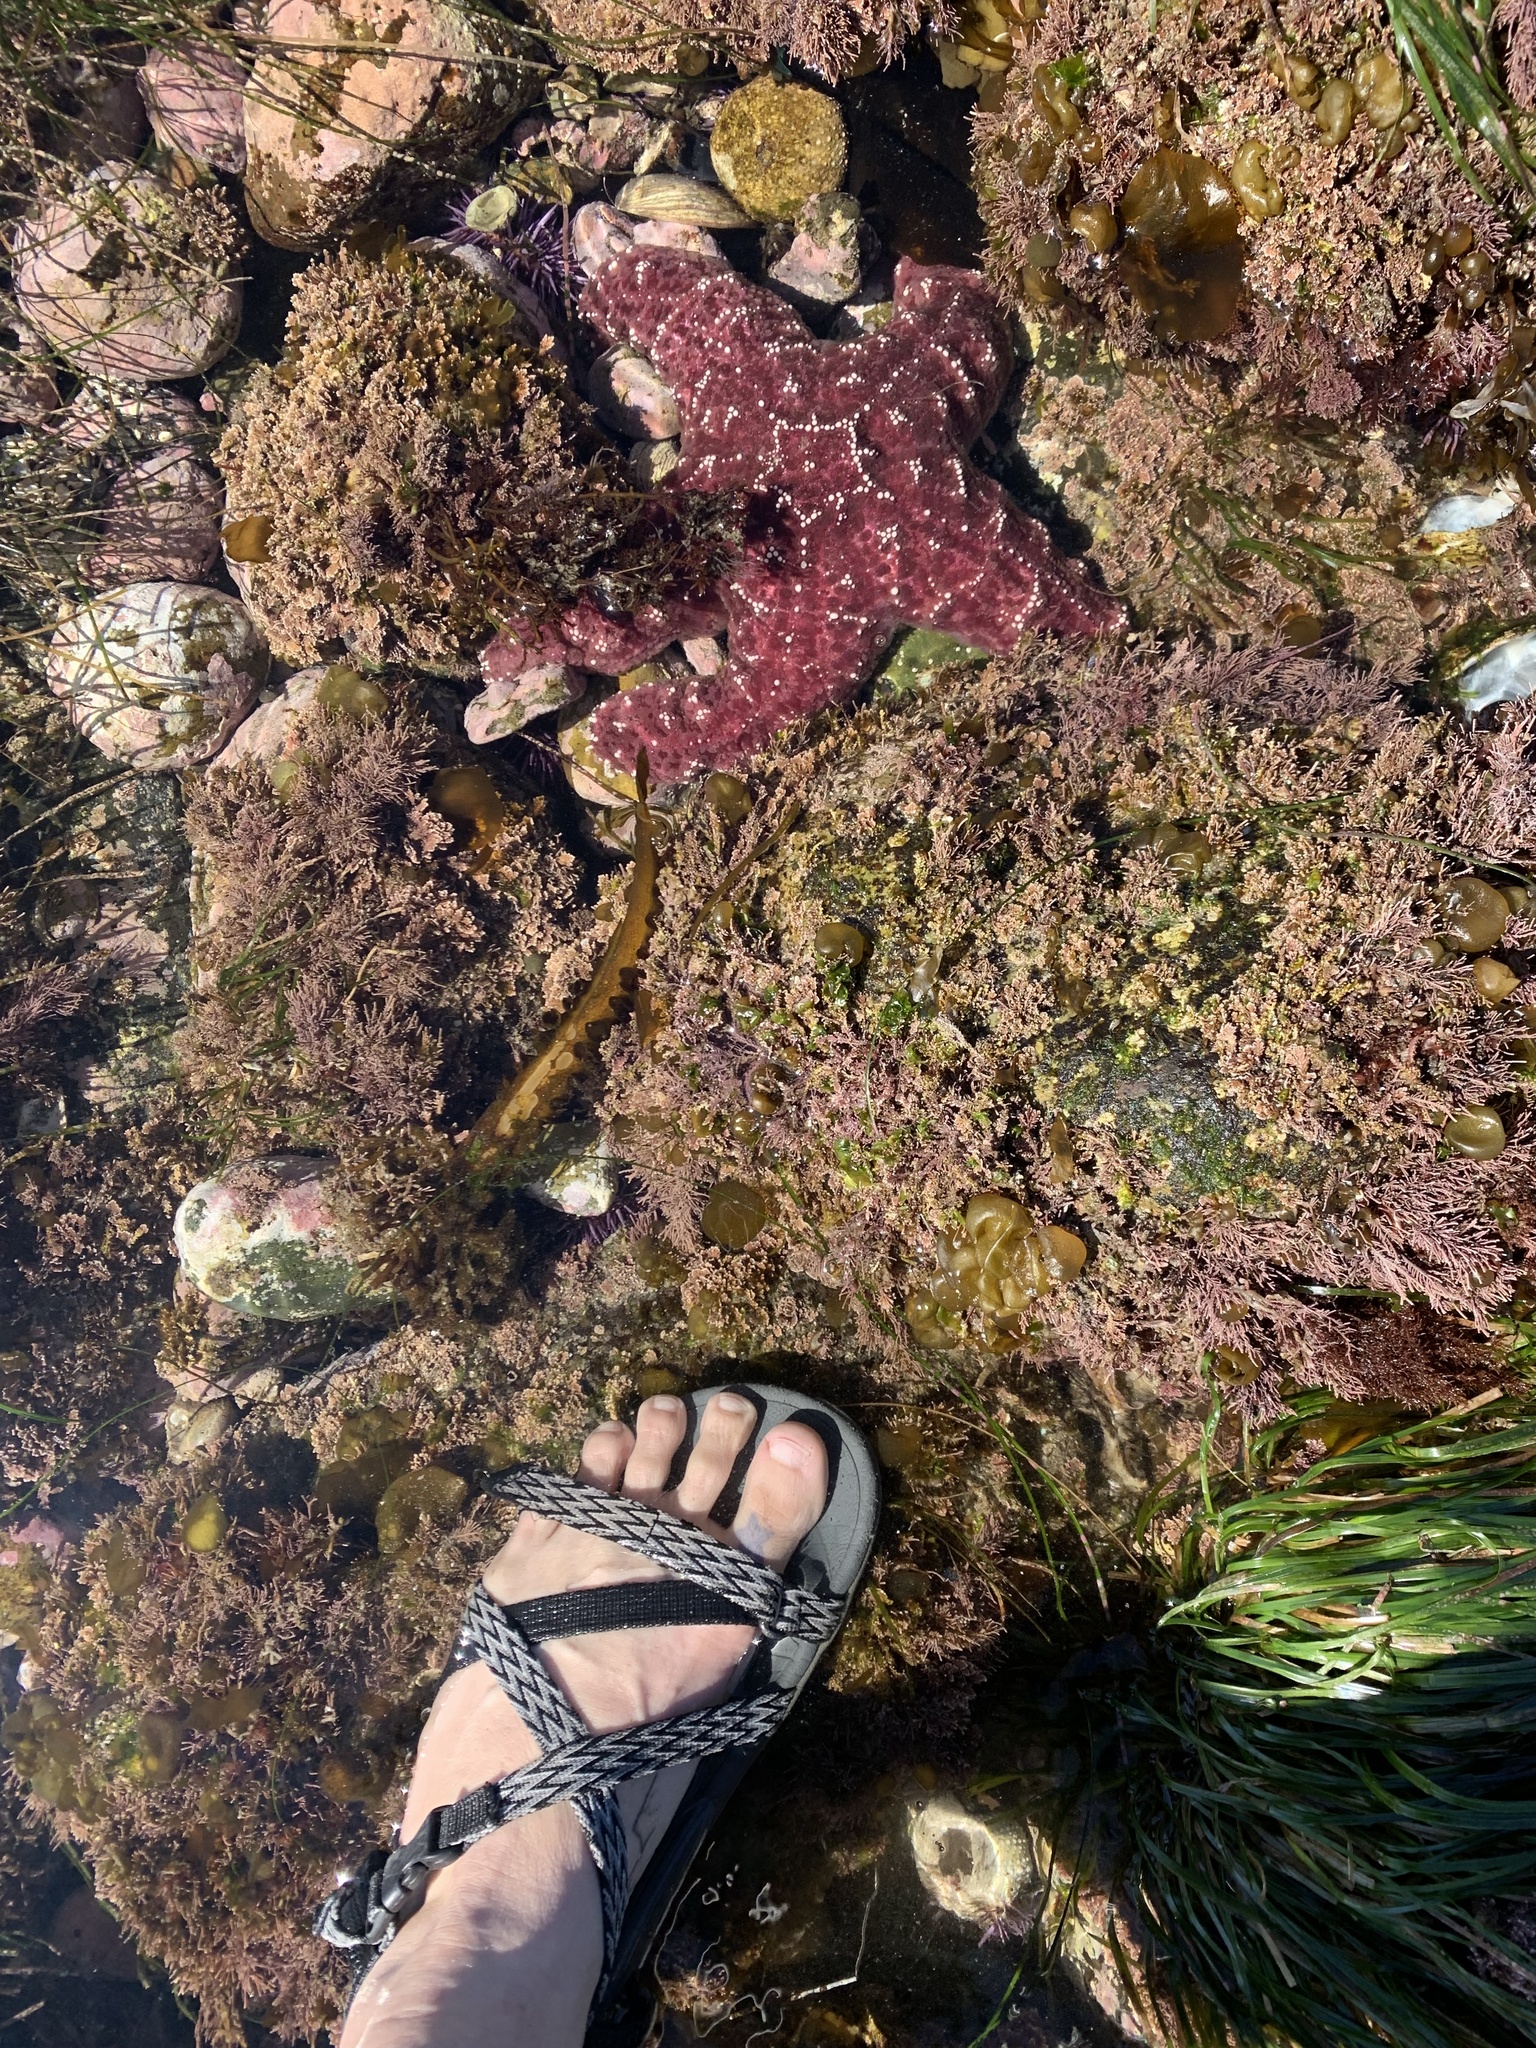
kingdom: Animalia
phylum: Echinodermata
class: Asteroidea
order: Forcipulatida
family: Asteriidae
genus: Pisaster
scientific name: Pisaster ochraceus
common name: Ochre stars
